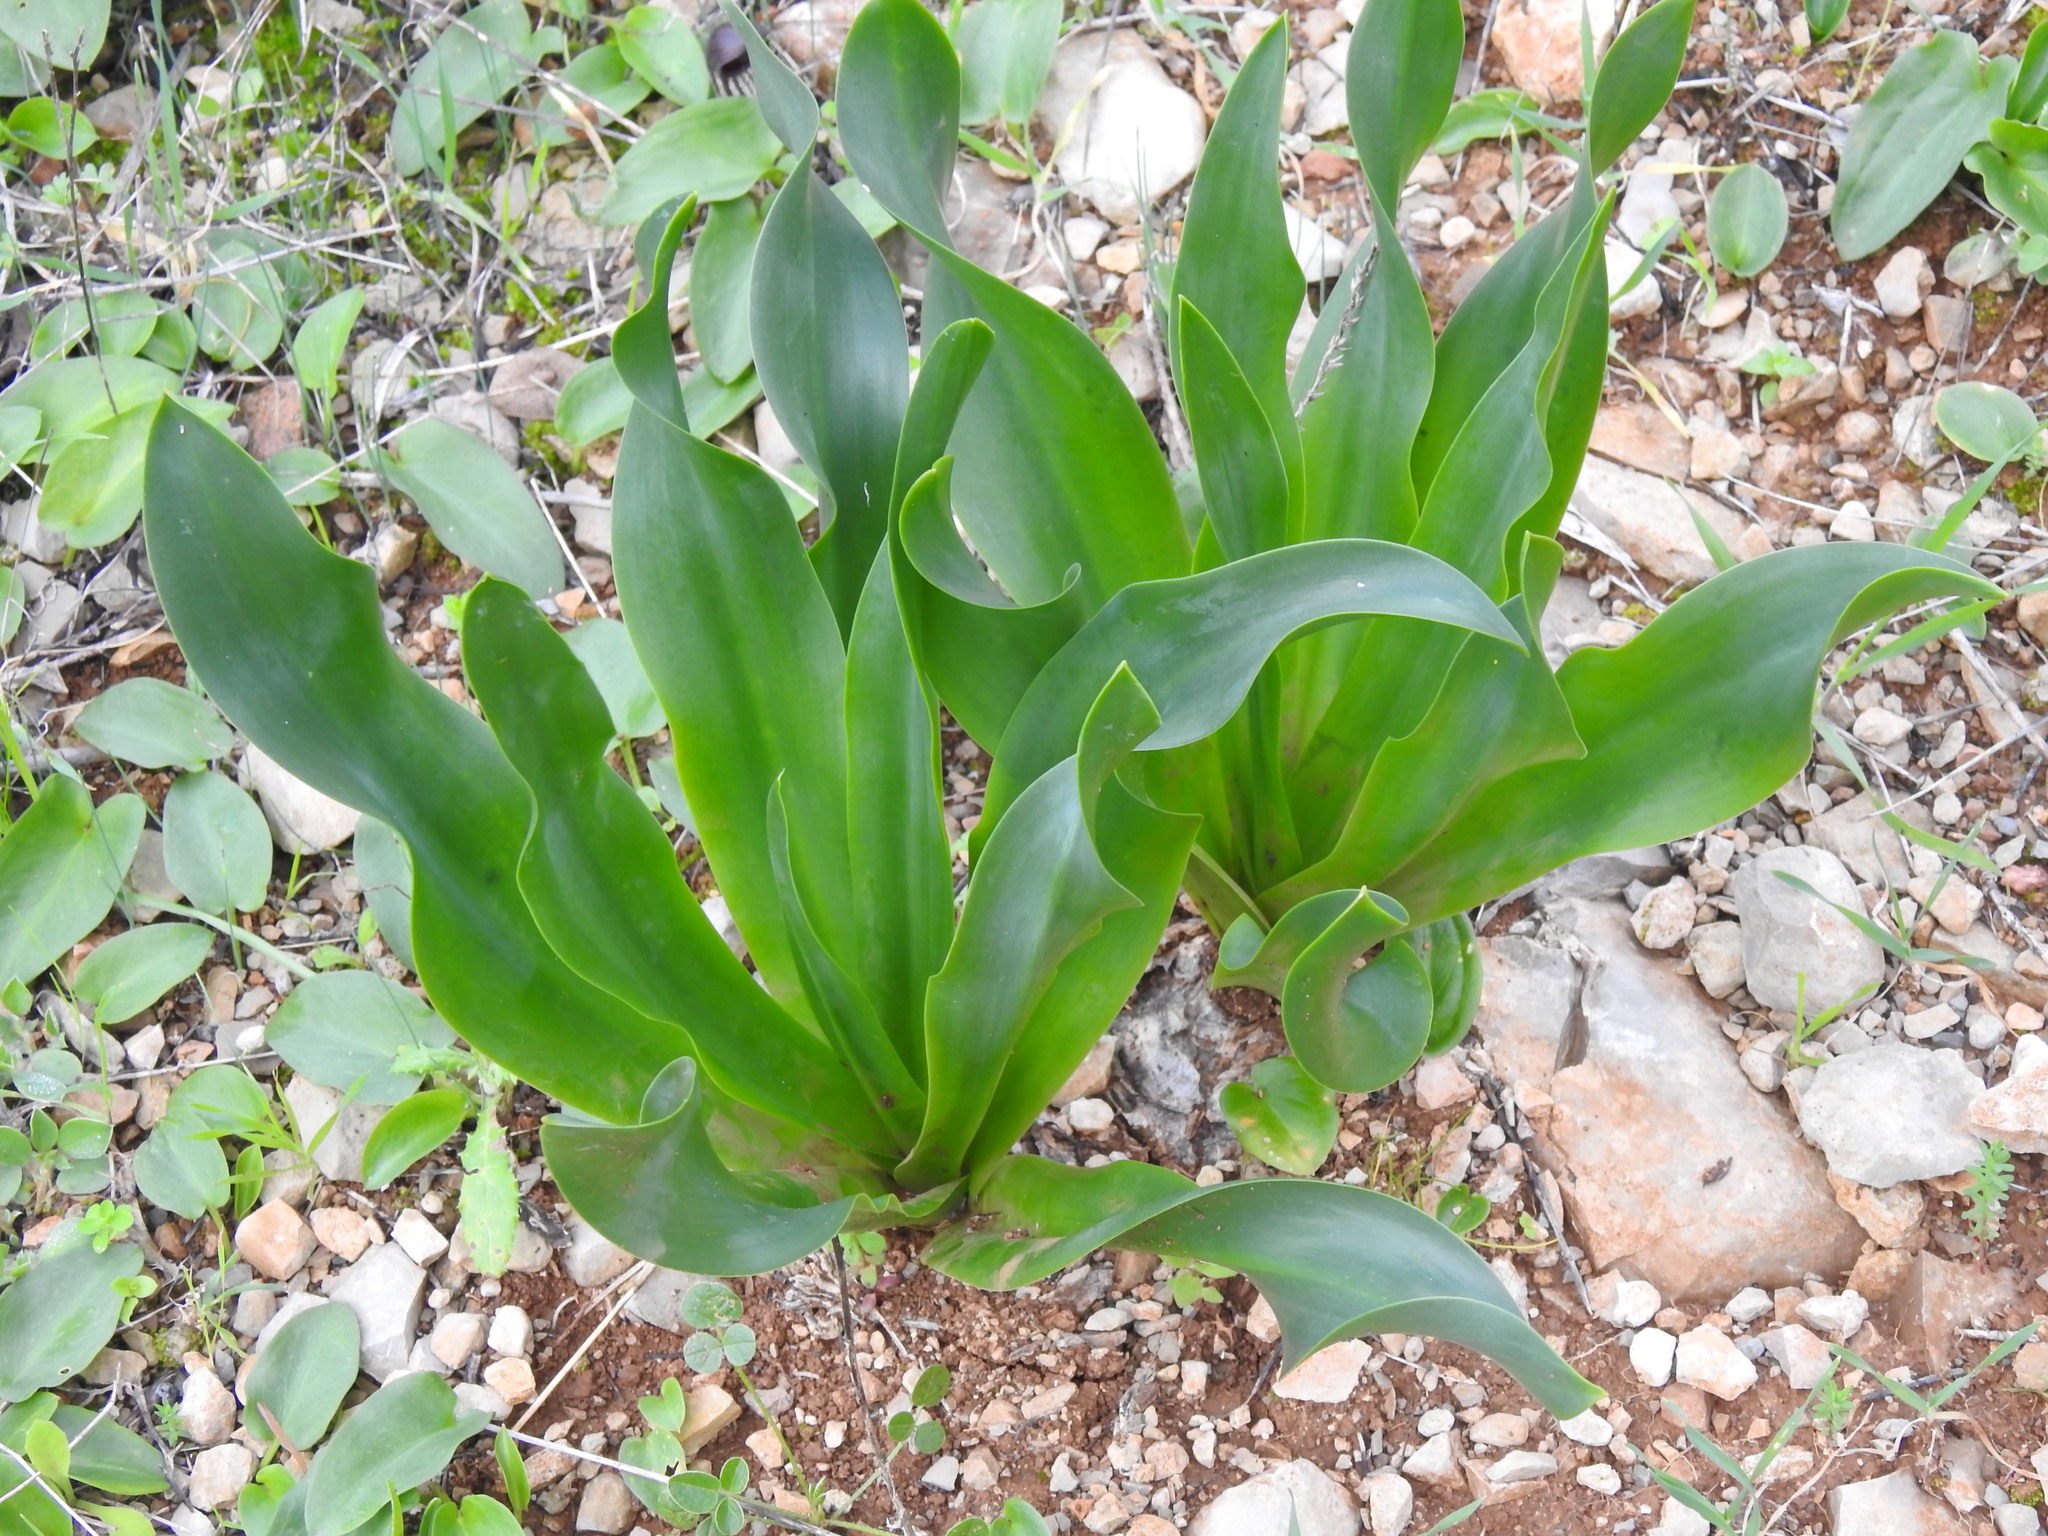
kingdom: Plantae
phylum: Tracheophyta
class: Liliopsida
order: Asparagales
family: Asparagaceae
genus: Drimia
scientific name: Drimia maritima
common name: Maritime squill
